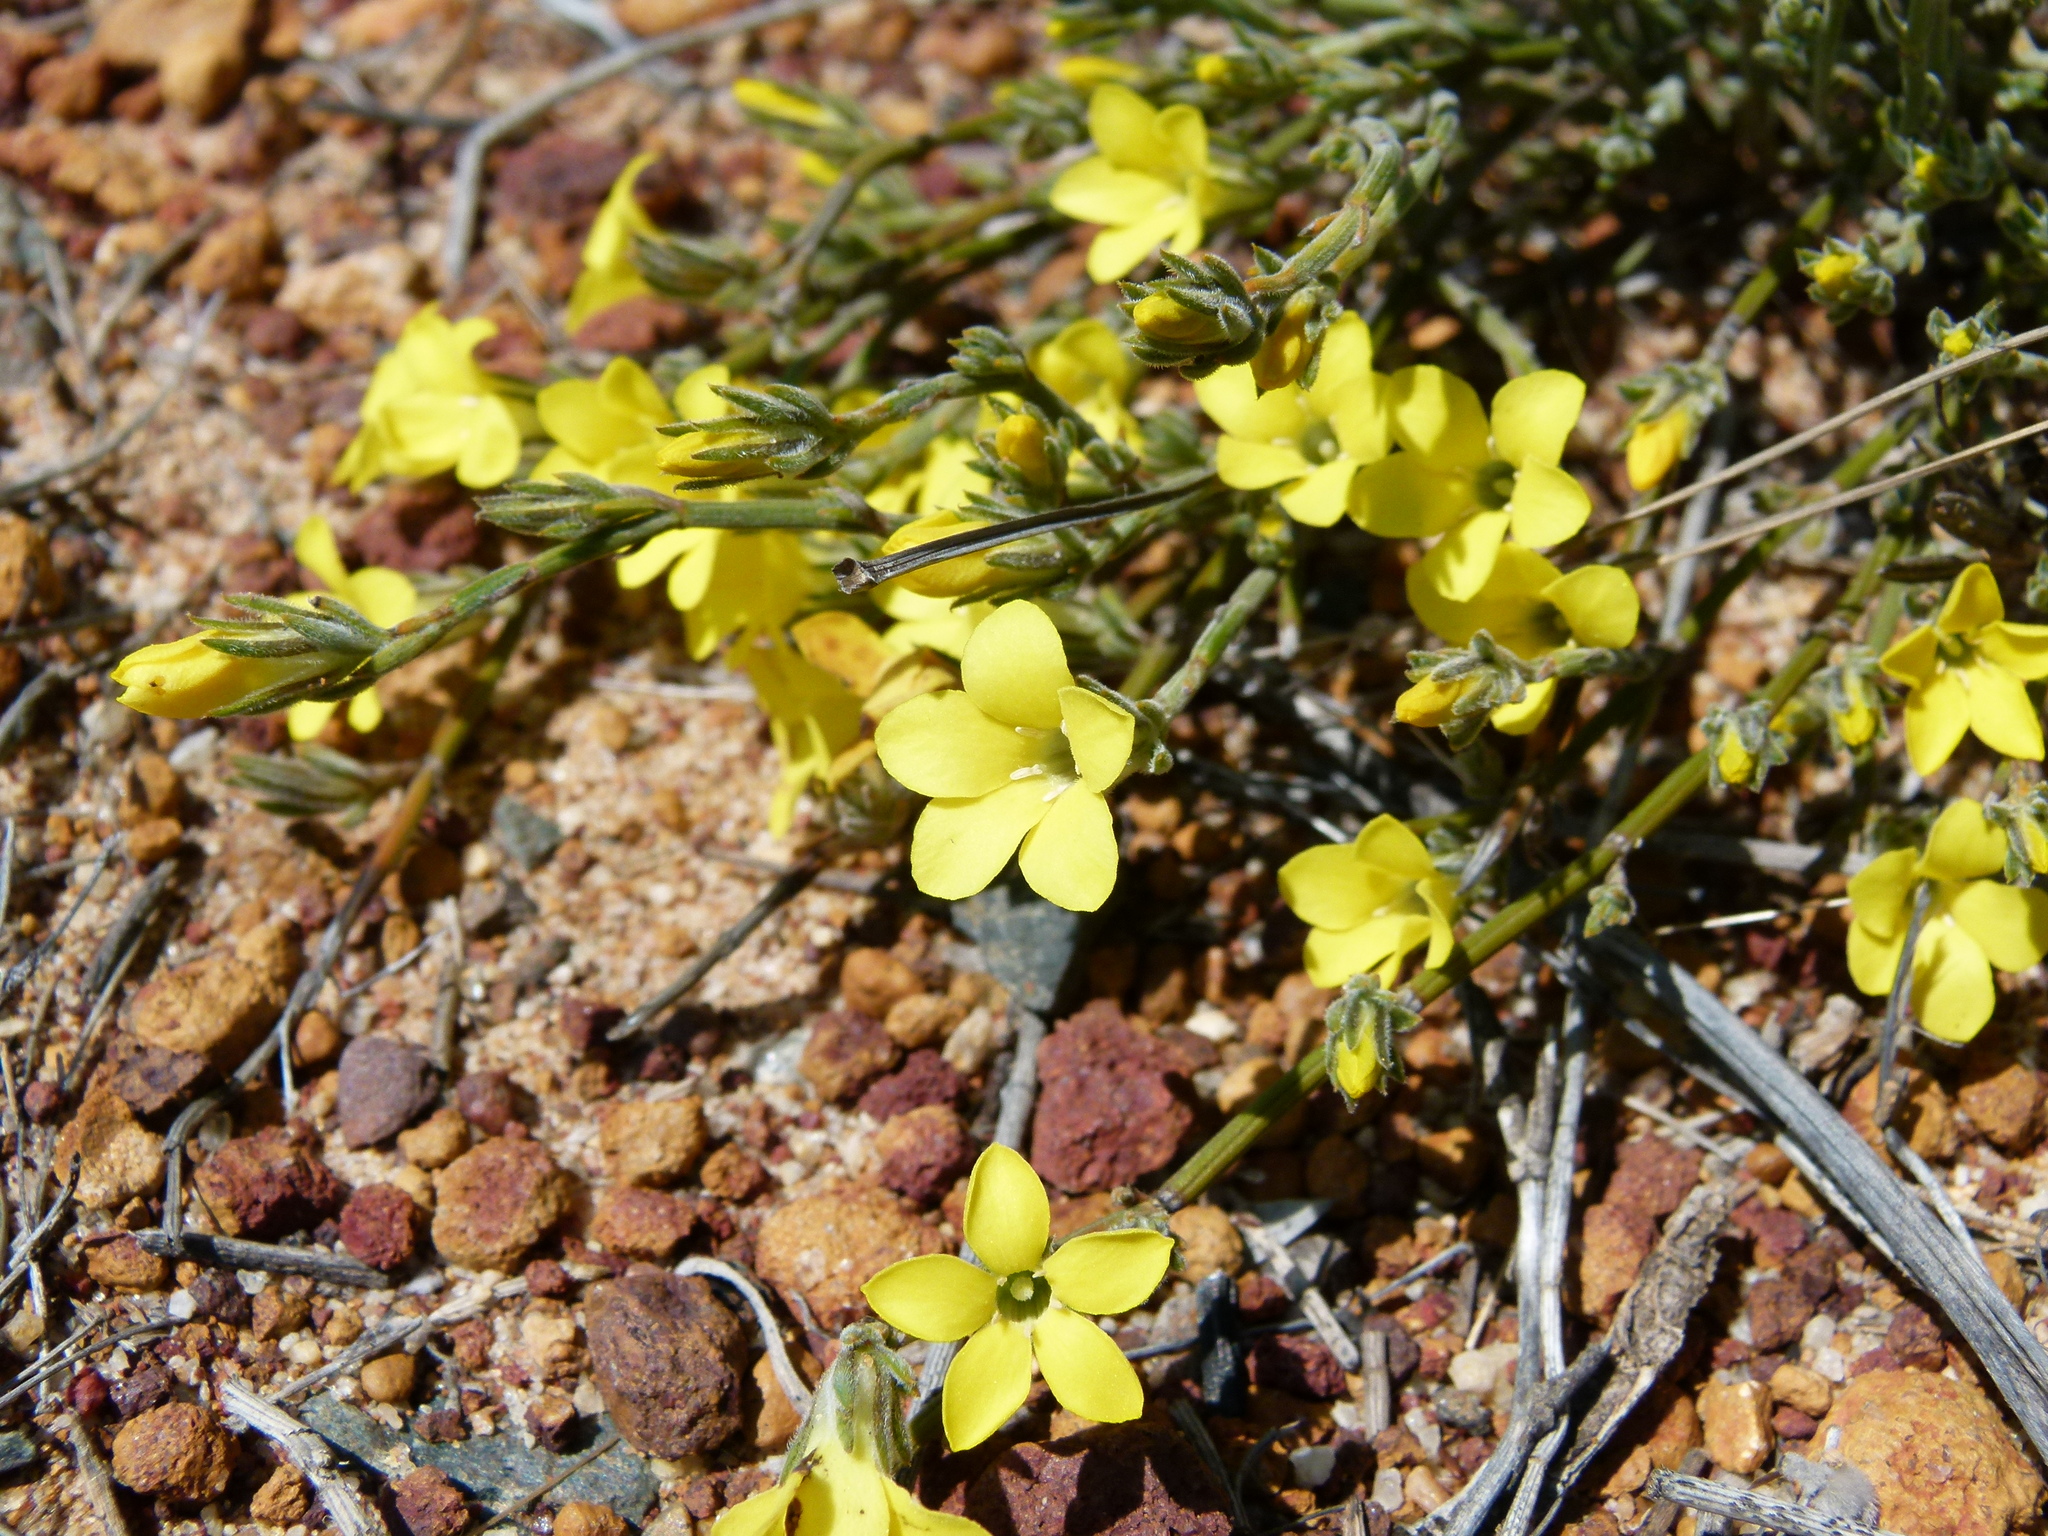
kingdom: Plantae
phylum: Tracheophyta
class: Magnoliopsida
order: Gentianales
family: Loganiaceae
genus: Orianthera
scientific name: Orianthera flaviflora
